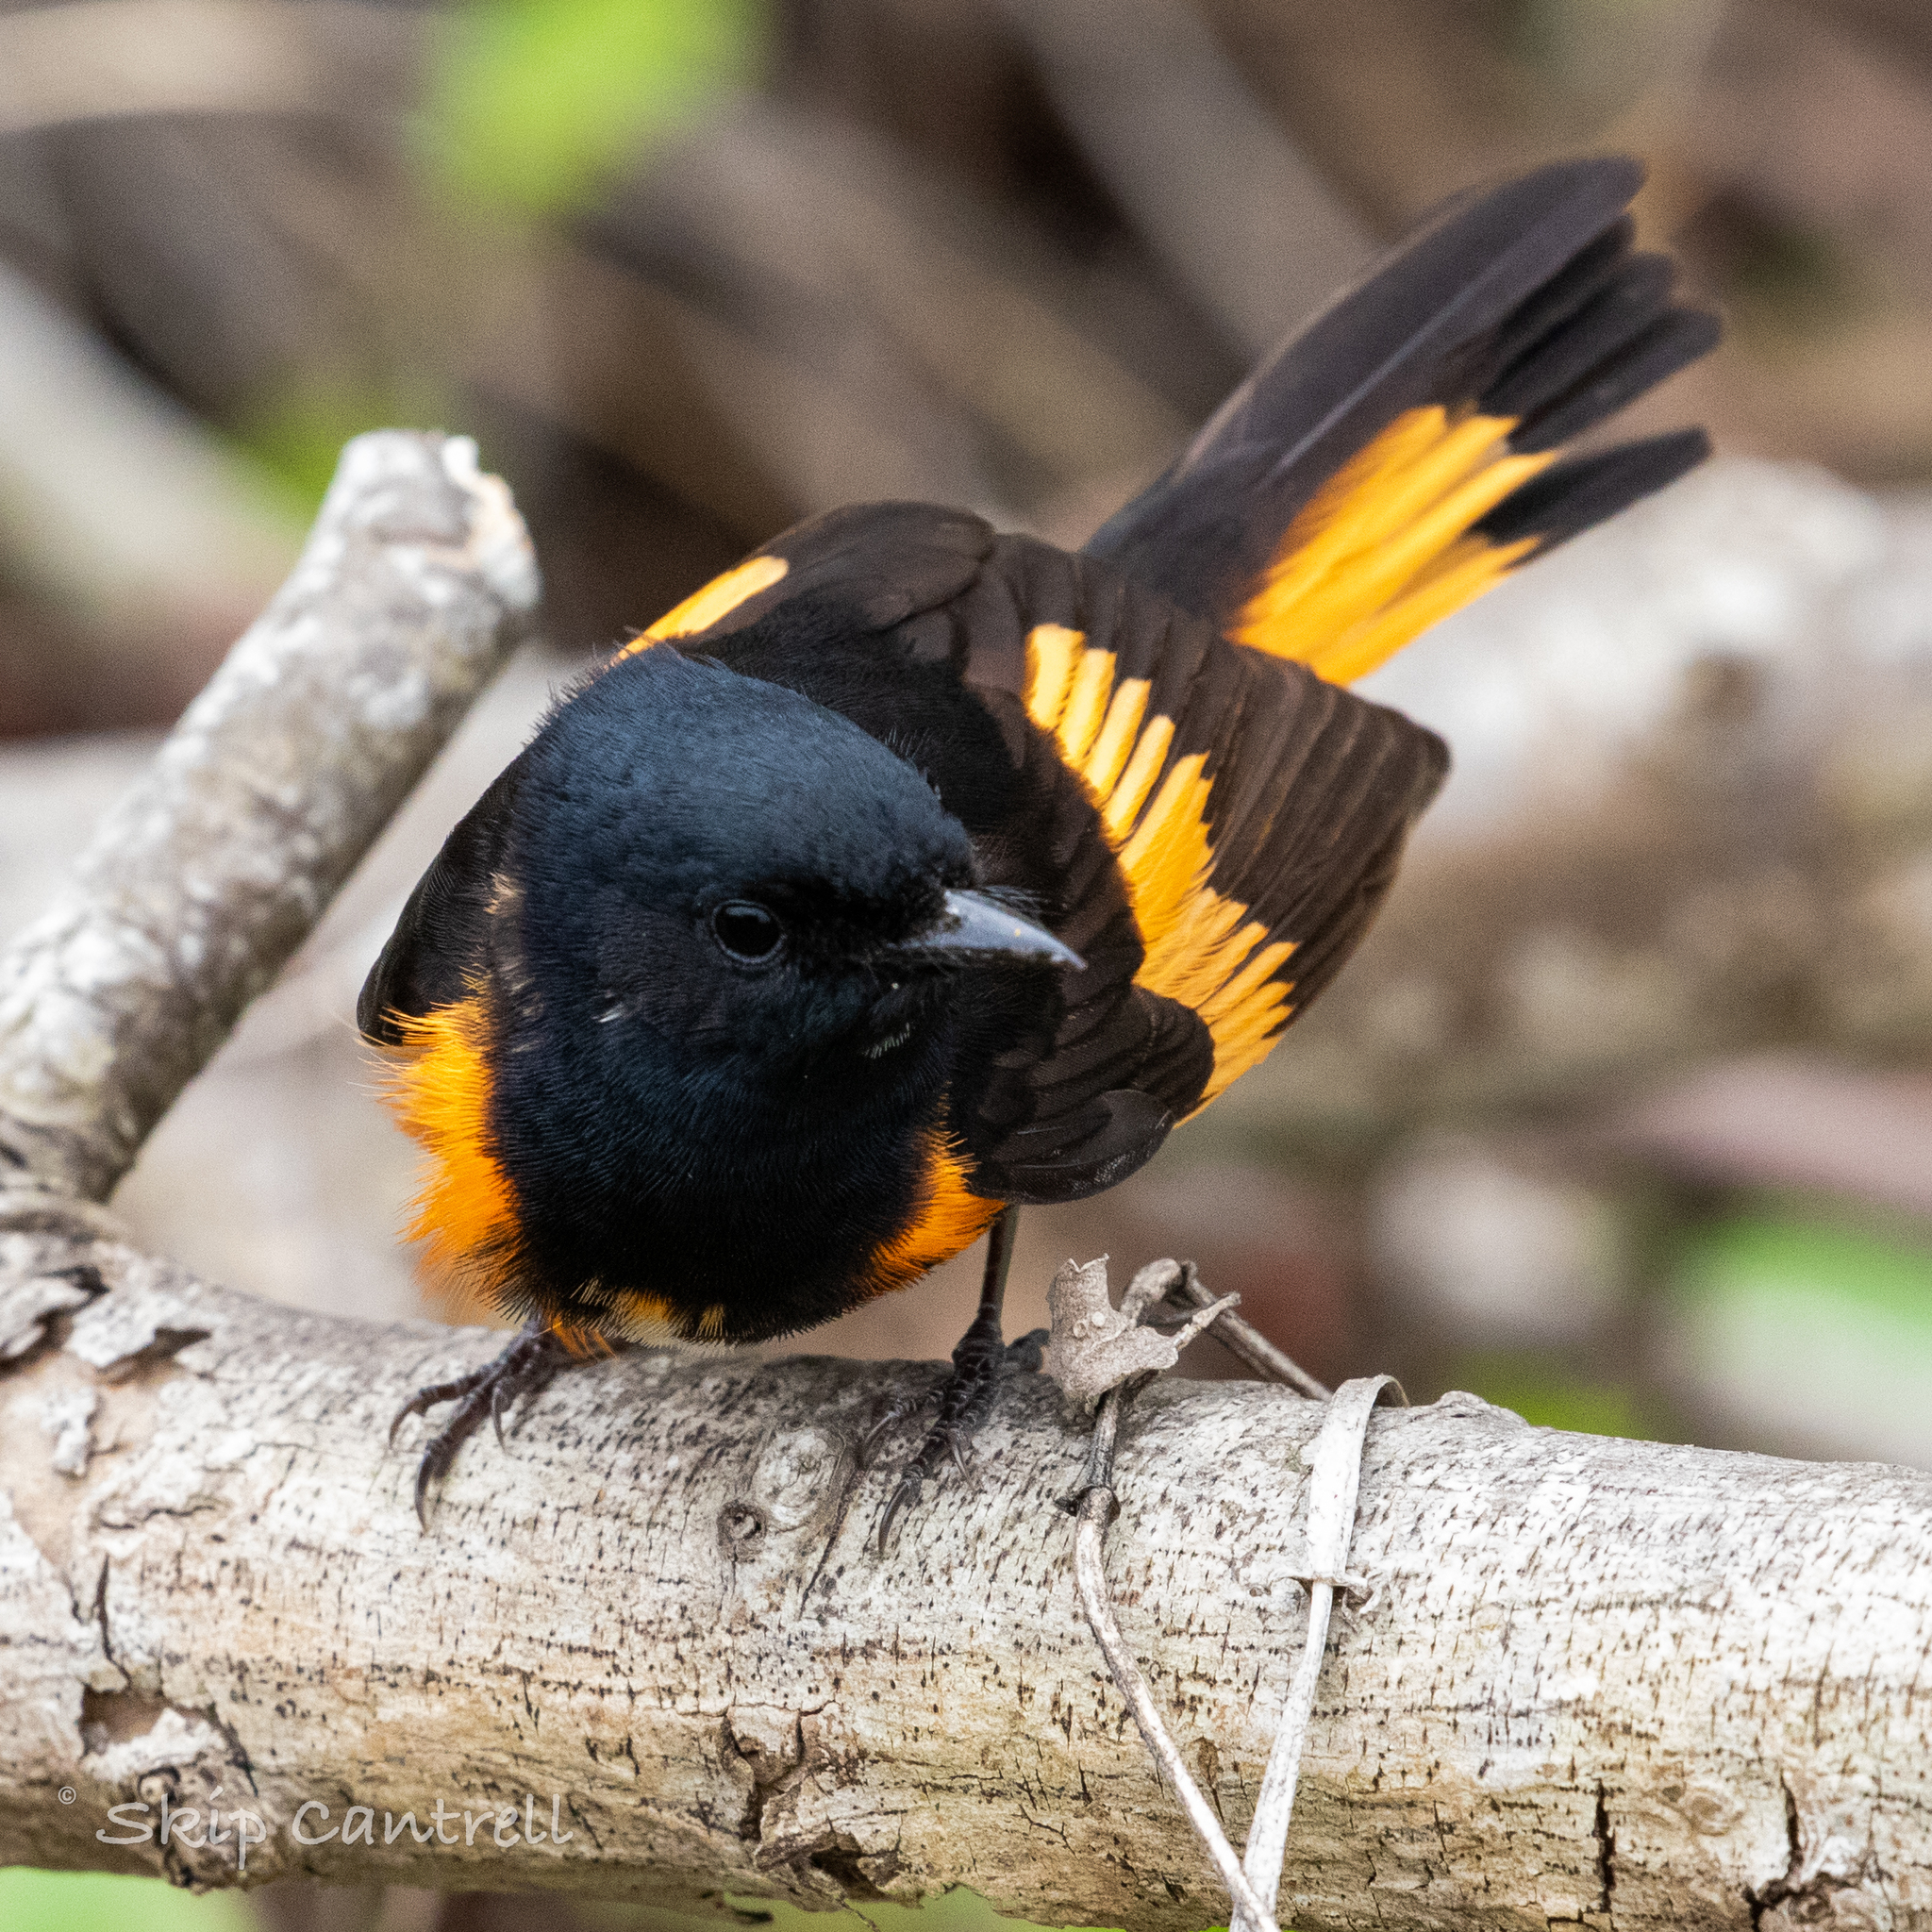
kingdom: Animalia
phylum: Chordata
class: Aves
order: Passeriformes
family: Parulidae
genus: Setophaga
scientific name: Setophaga ruticilla
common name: American redstart
